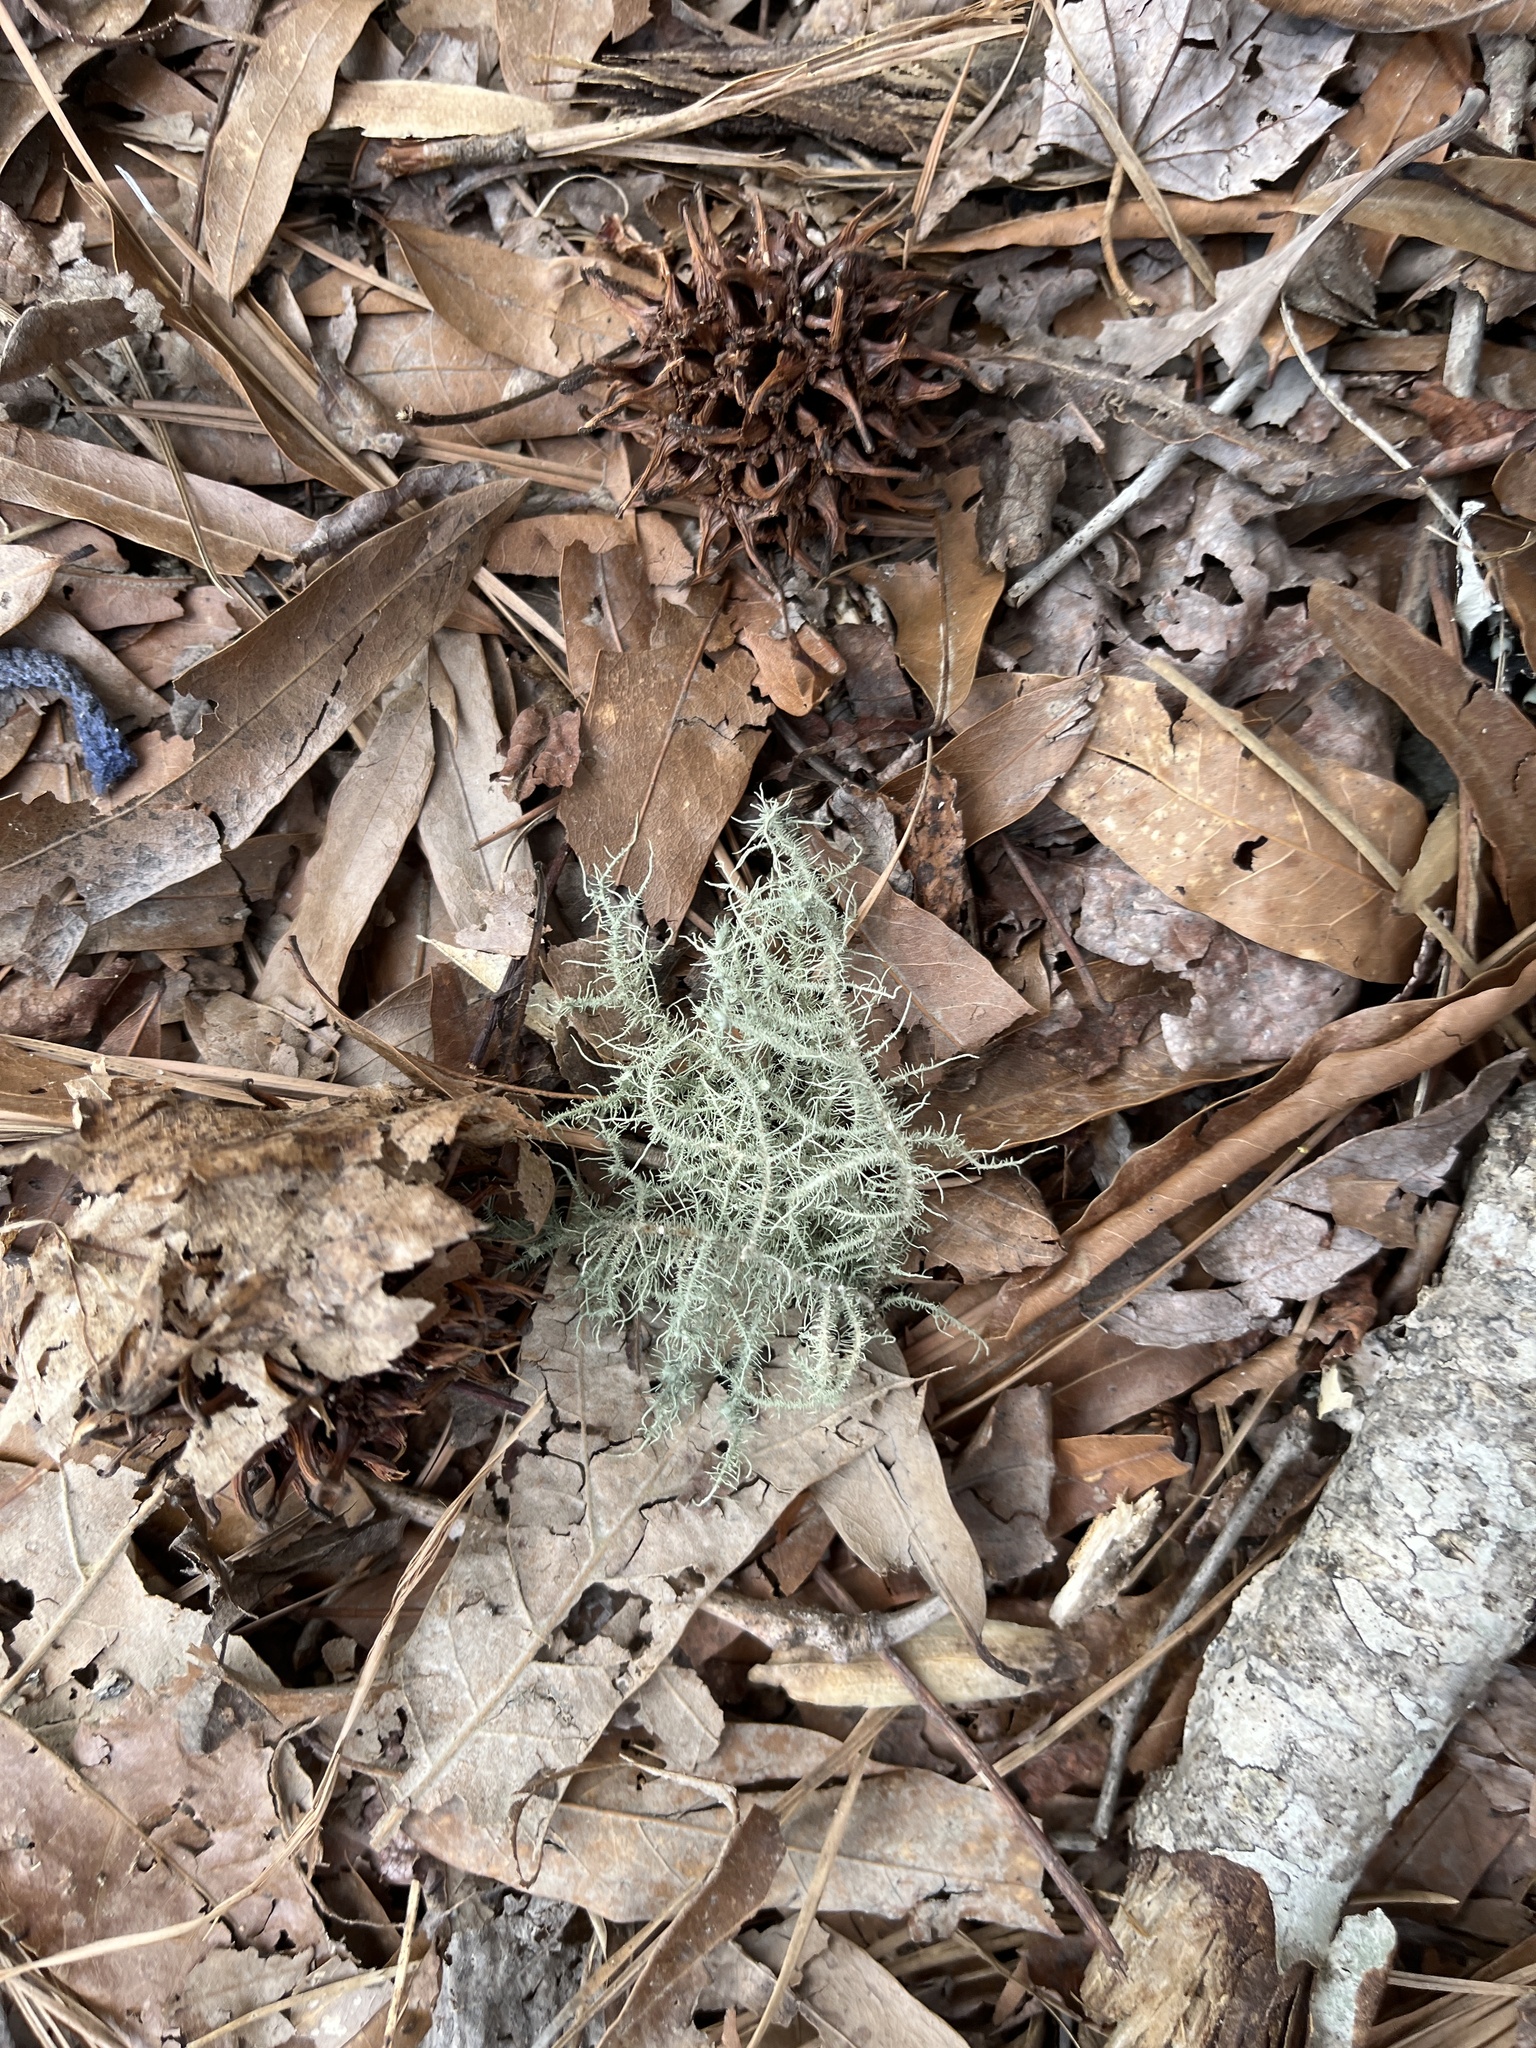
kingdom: Fungi
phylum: Ascomycota
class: Lecanoromycetes
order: Lecanorales
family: Parmeliaceae
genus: Usnea
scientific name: Usnea strigosa
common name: Bushy beard lichen
